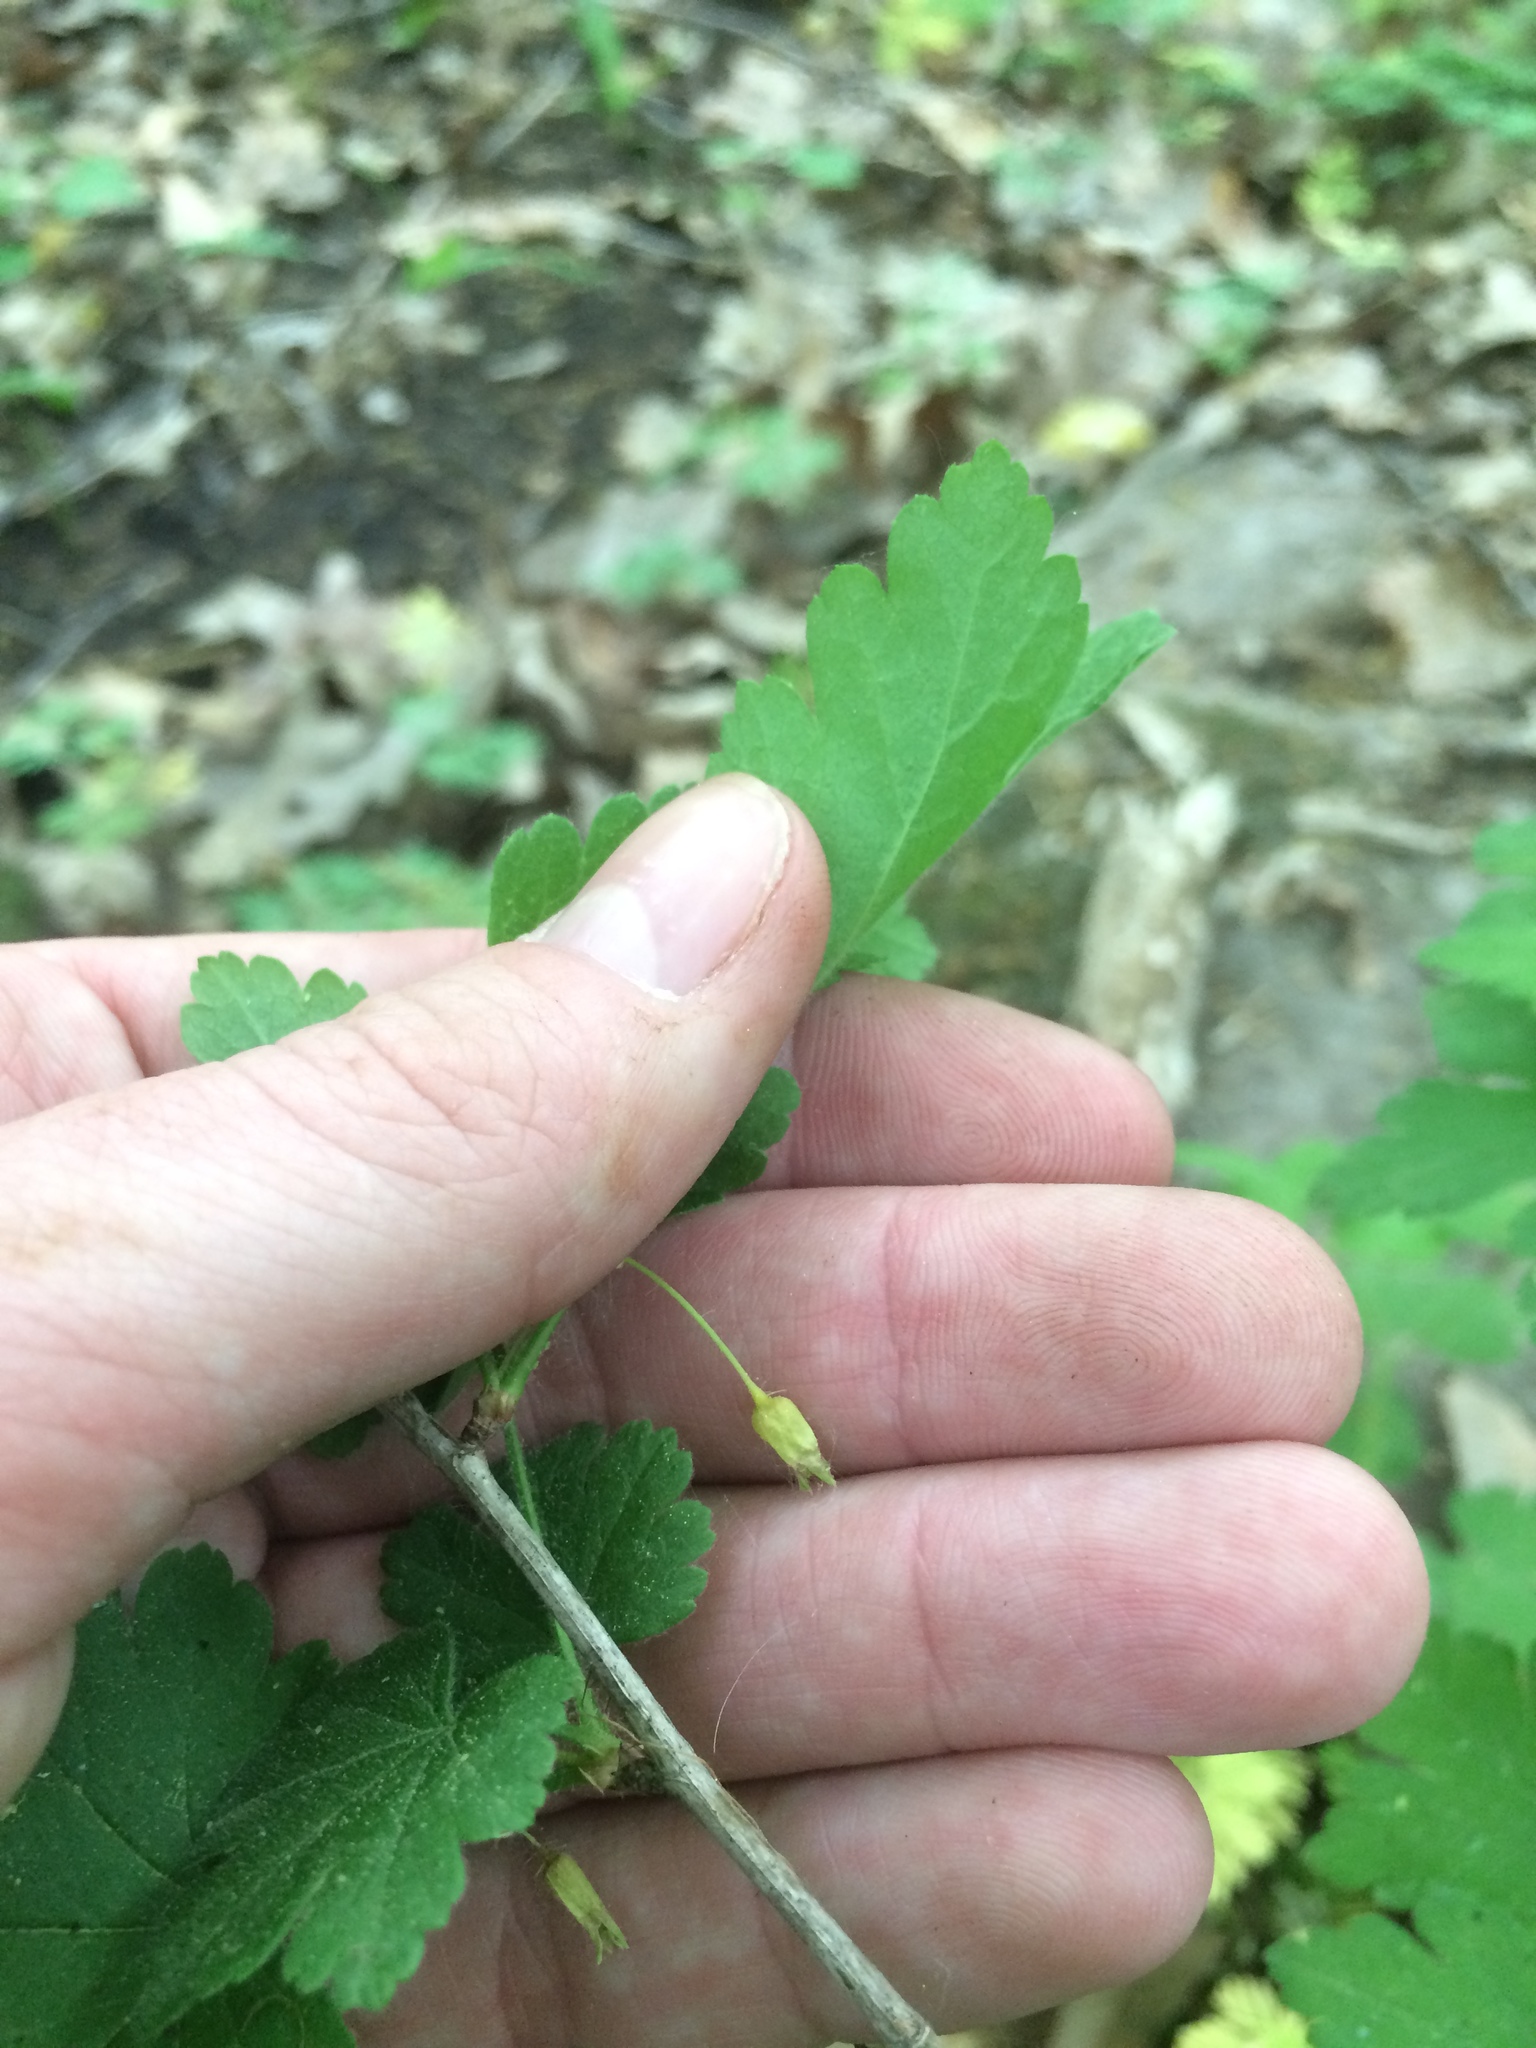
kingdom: Plantae
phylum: Tracheophyta
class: Magnoliopsida
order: Saxifragales
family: Grossulariaceae
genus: Ribes
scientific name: Ribes cynosbati
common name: American gooseberry
